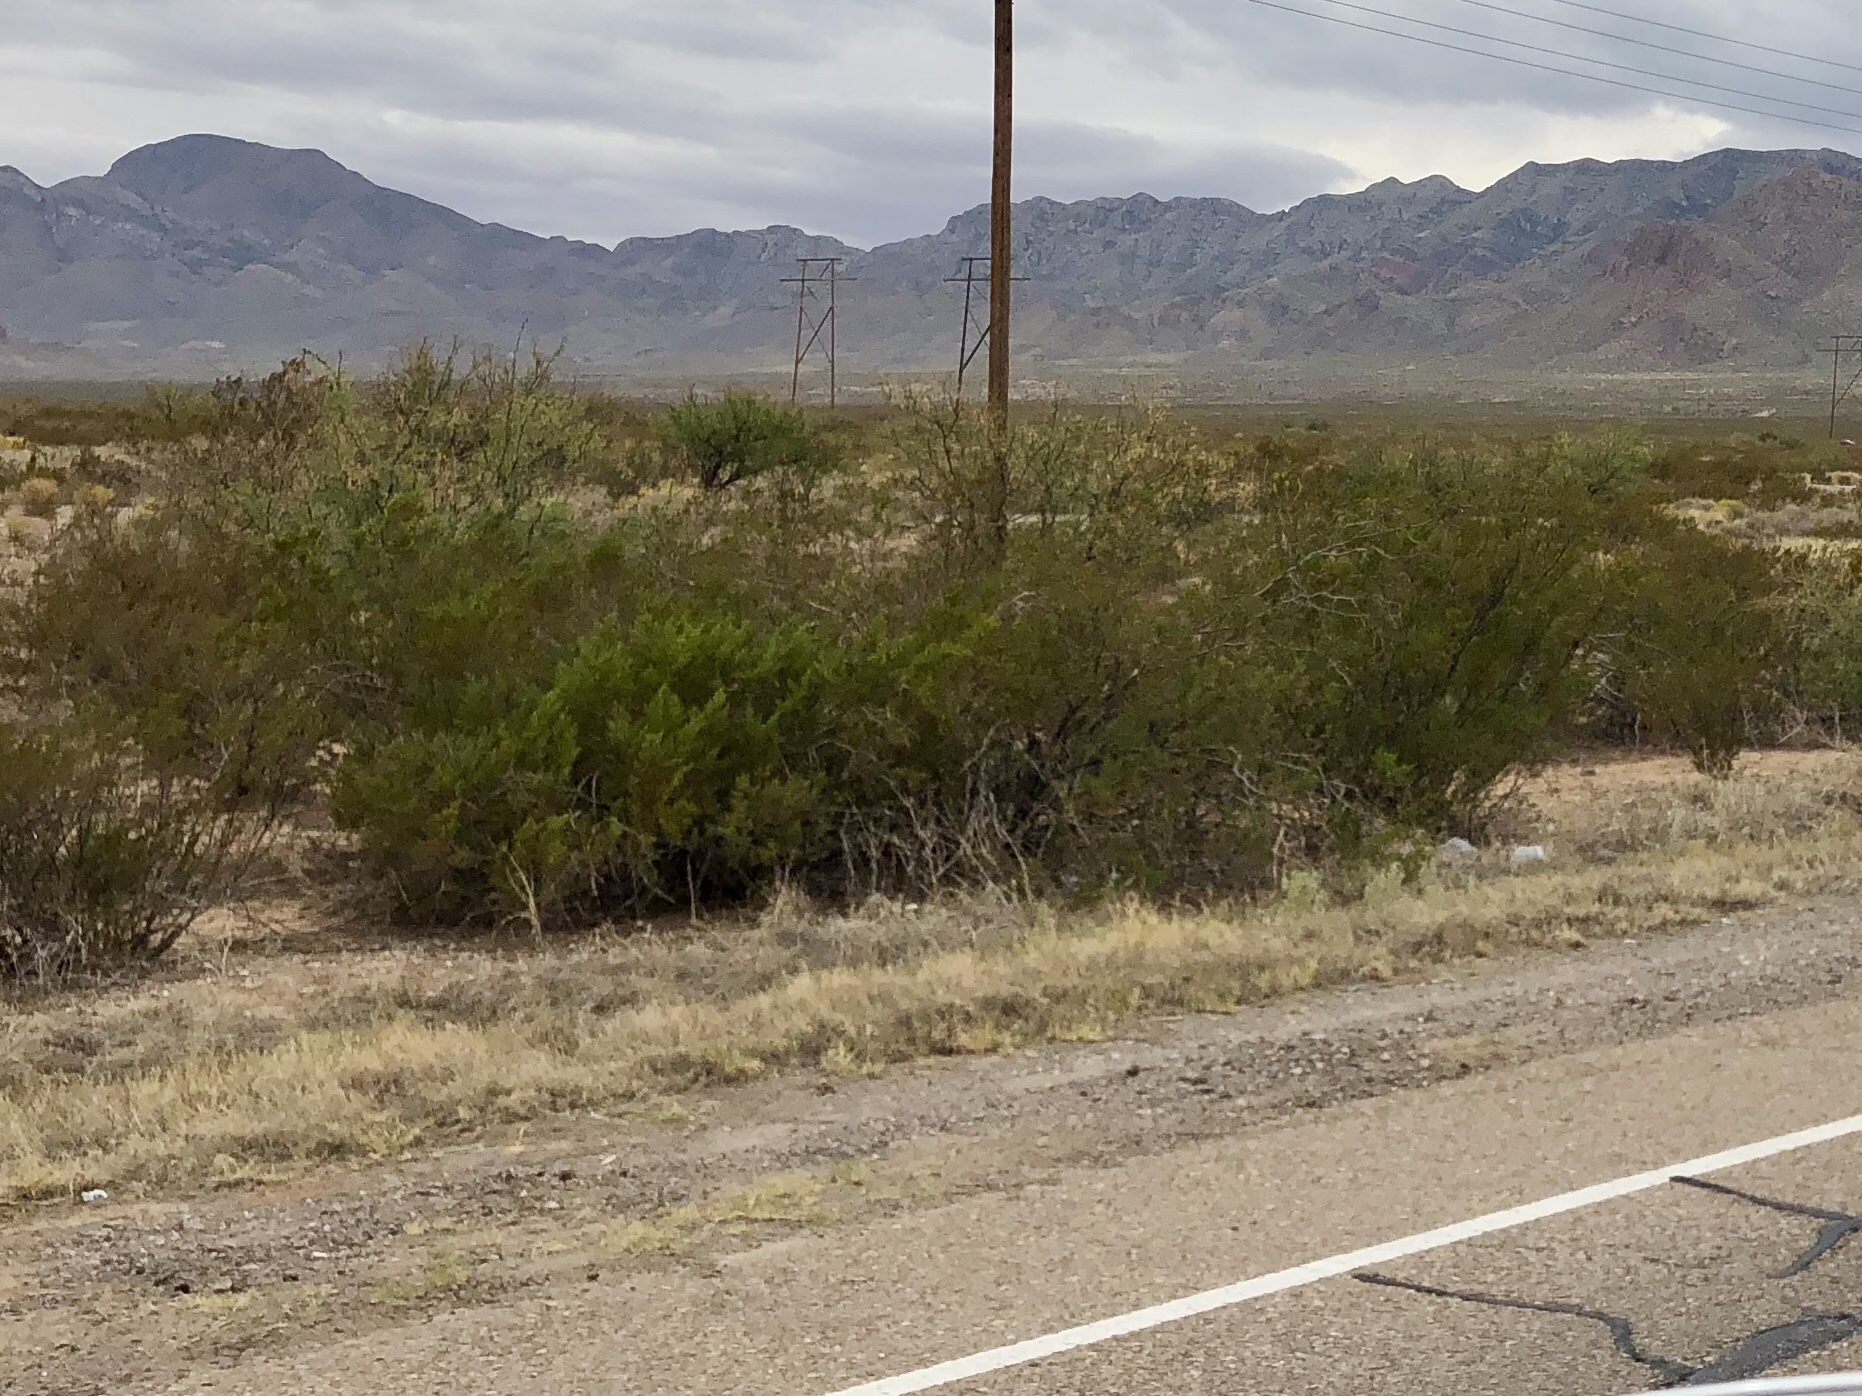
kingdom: Plantae
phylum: Tracheophyta
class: Magnoliopsida
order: Zygophyllales
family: Zygophyllaceae
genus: Larrea
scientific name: Larrea tridentata
